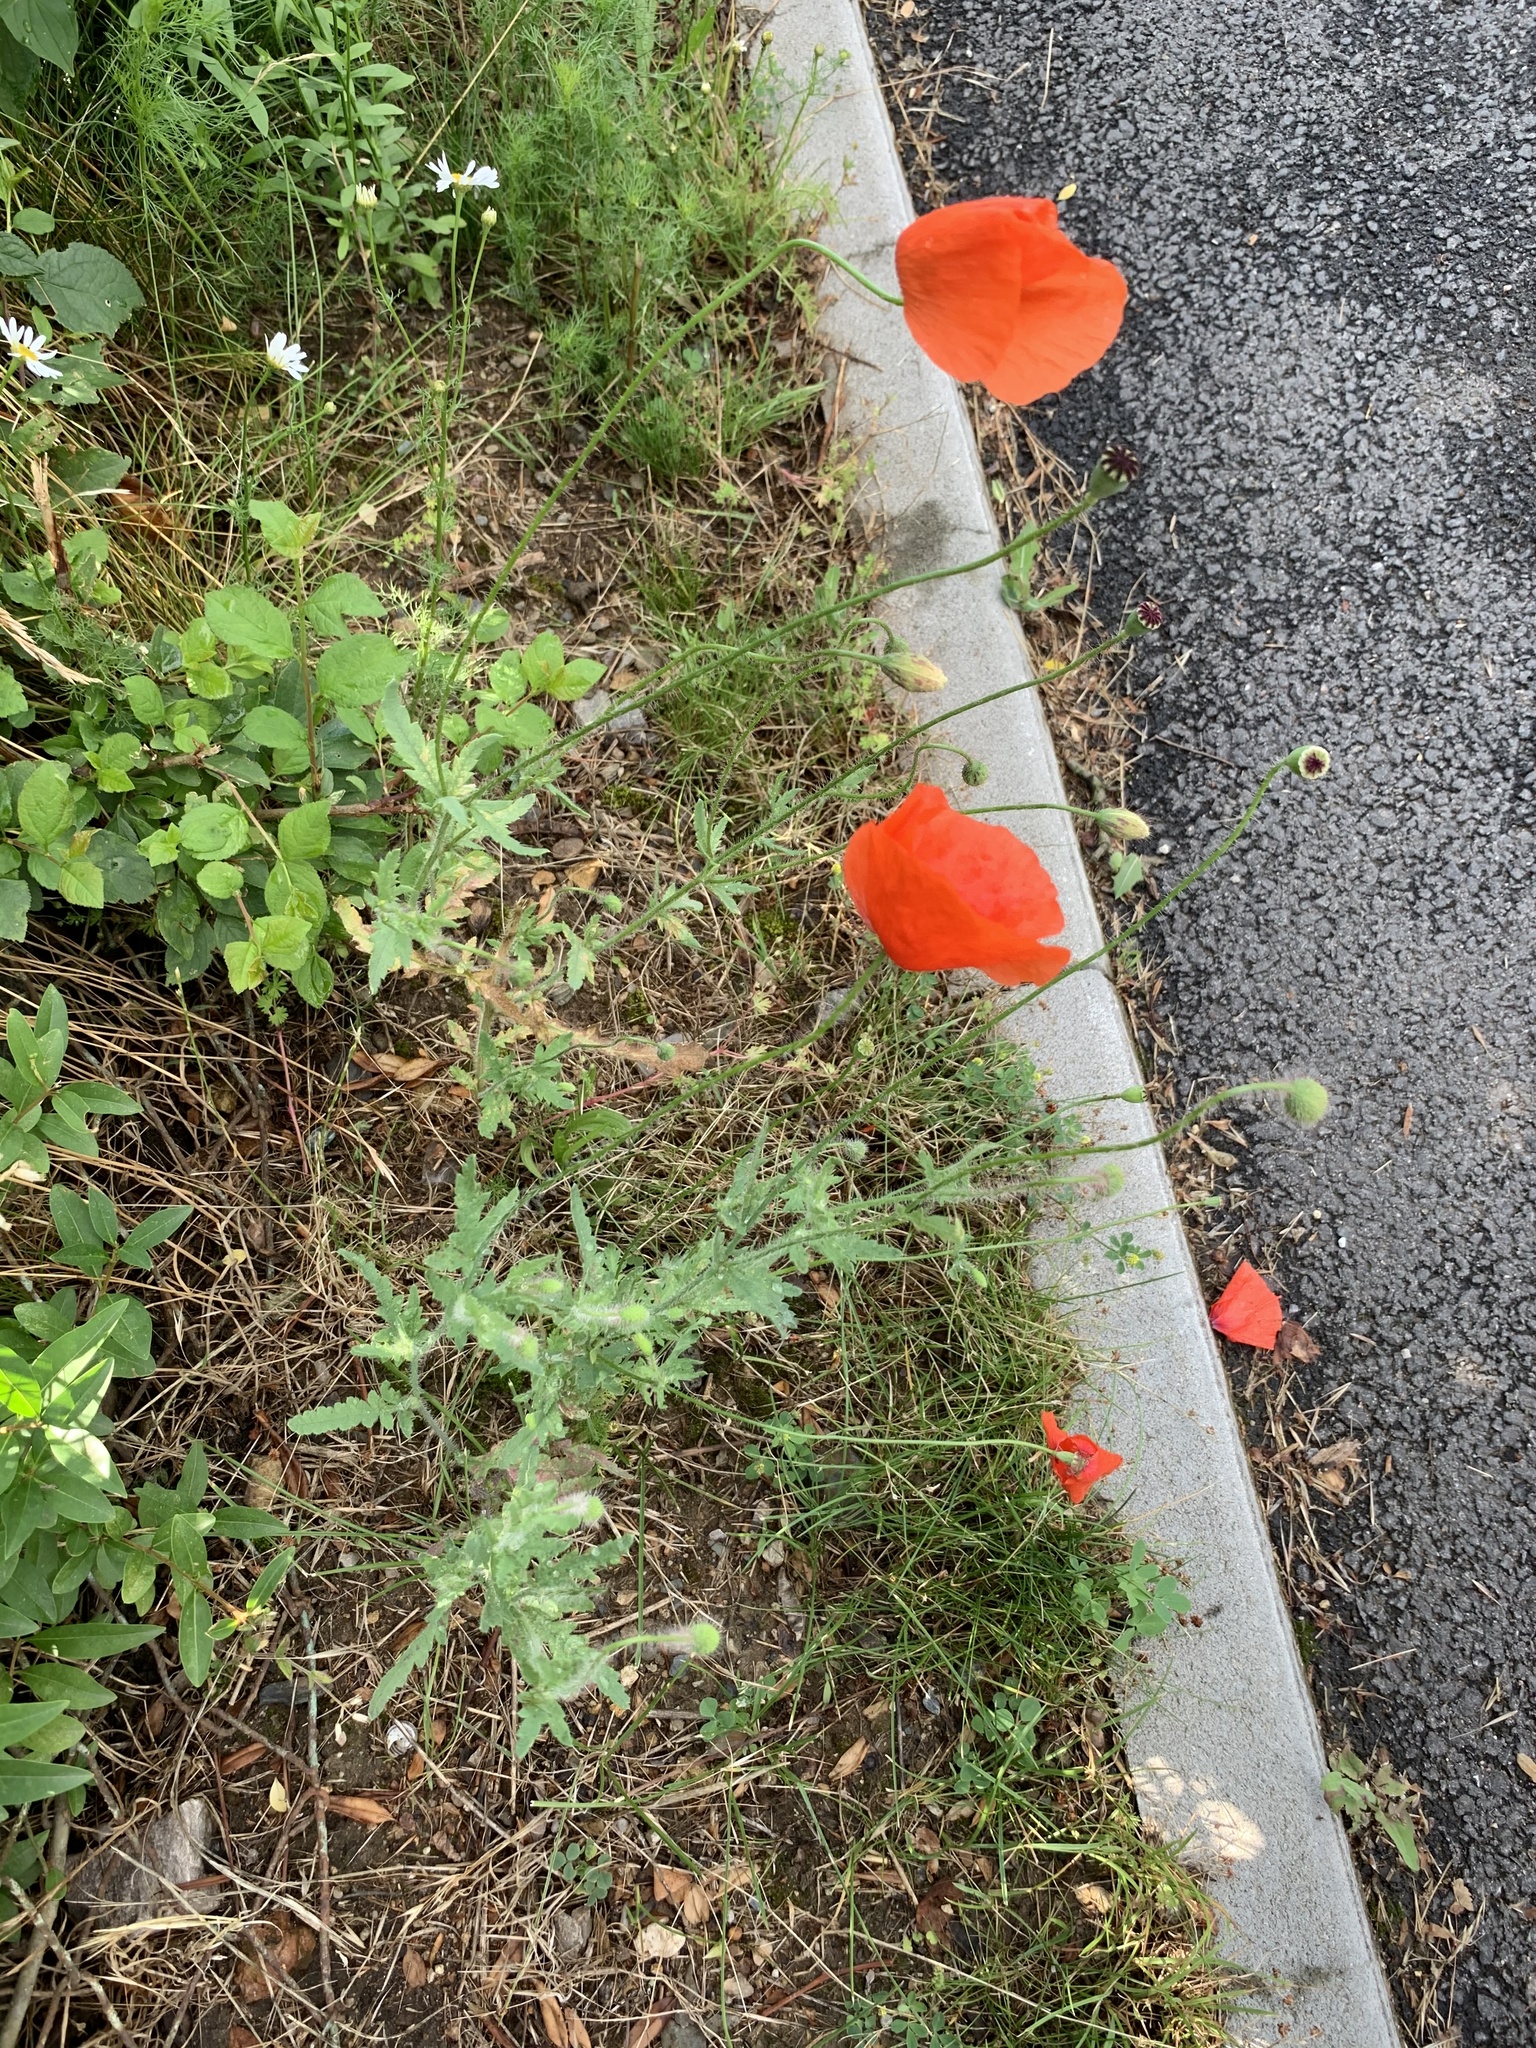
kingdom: Plantae
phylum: Tracheophyta
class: Magnoliopsida
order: Ranunculales
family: Papaveraceae
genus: Papaver
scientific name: Papaver rhoeas
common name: Corn poppy
